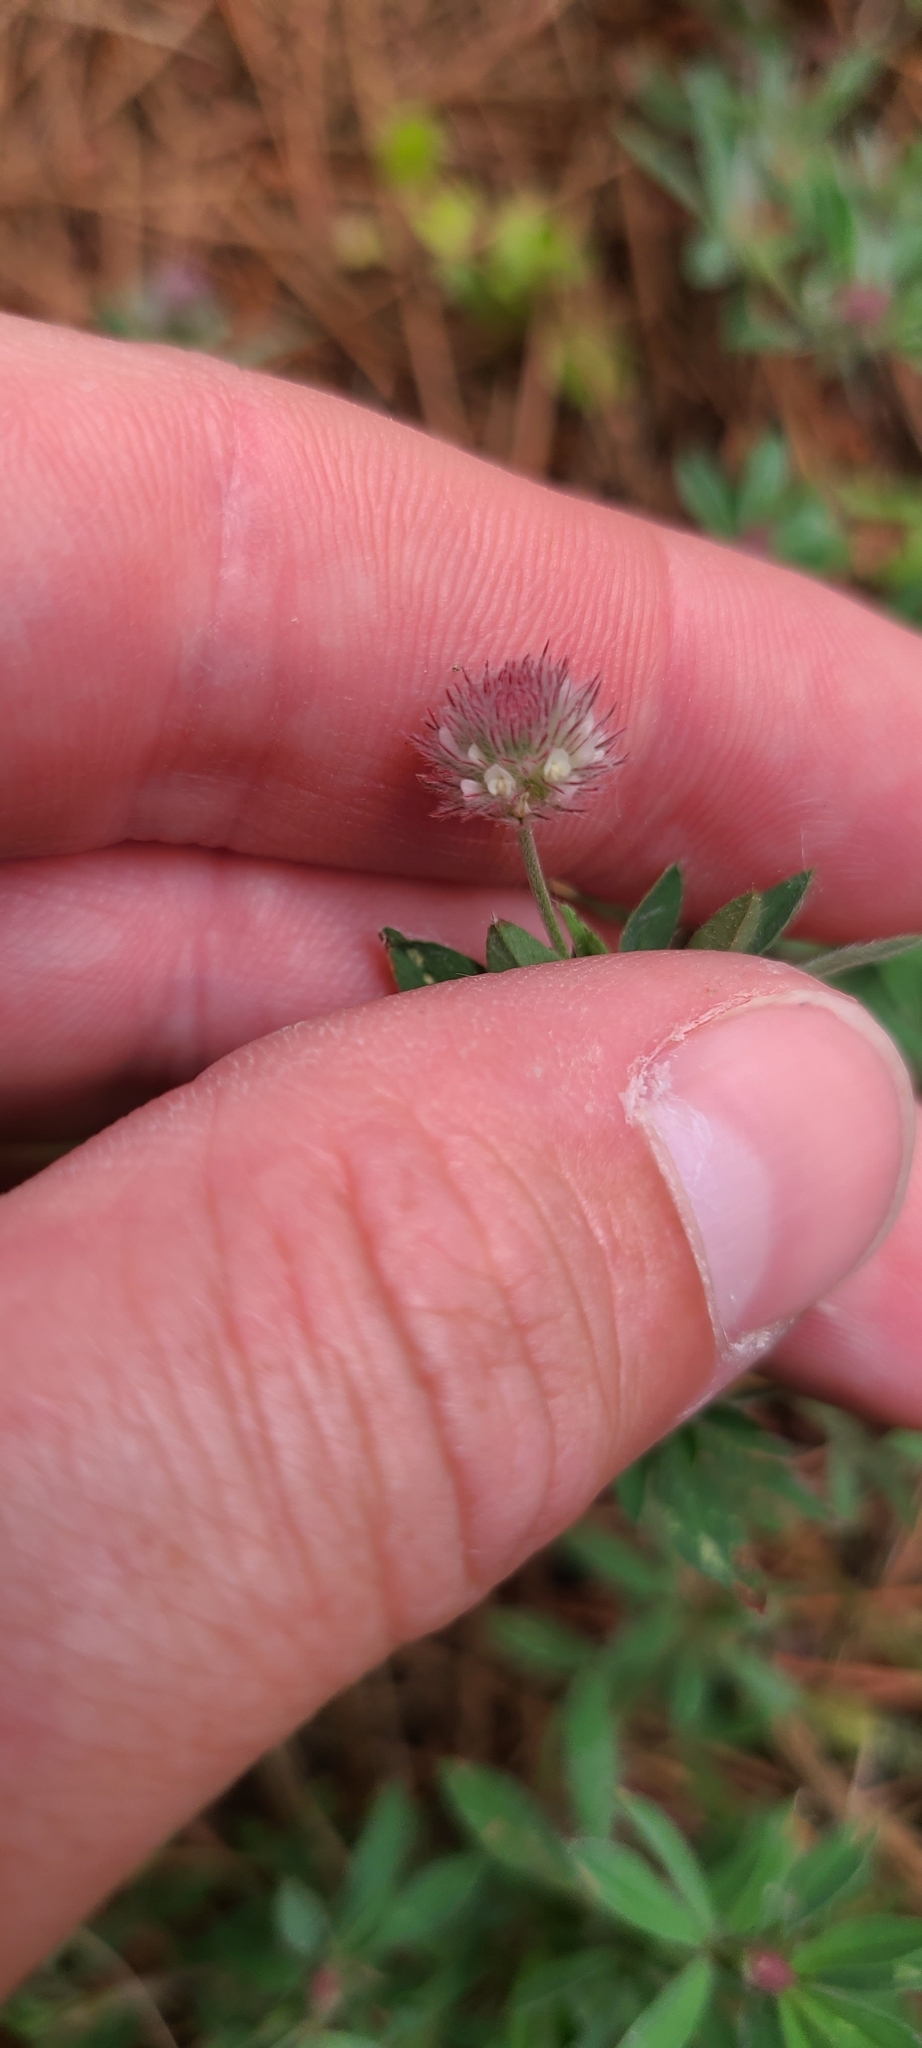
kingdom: Plantae
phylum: Tracheophyta
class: Magnoliopsida
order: Fabales
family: Fabaceae
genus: Trifolium
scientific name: Trifolium arvense
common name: Hare's-foot clover
